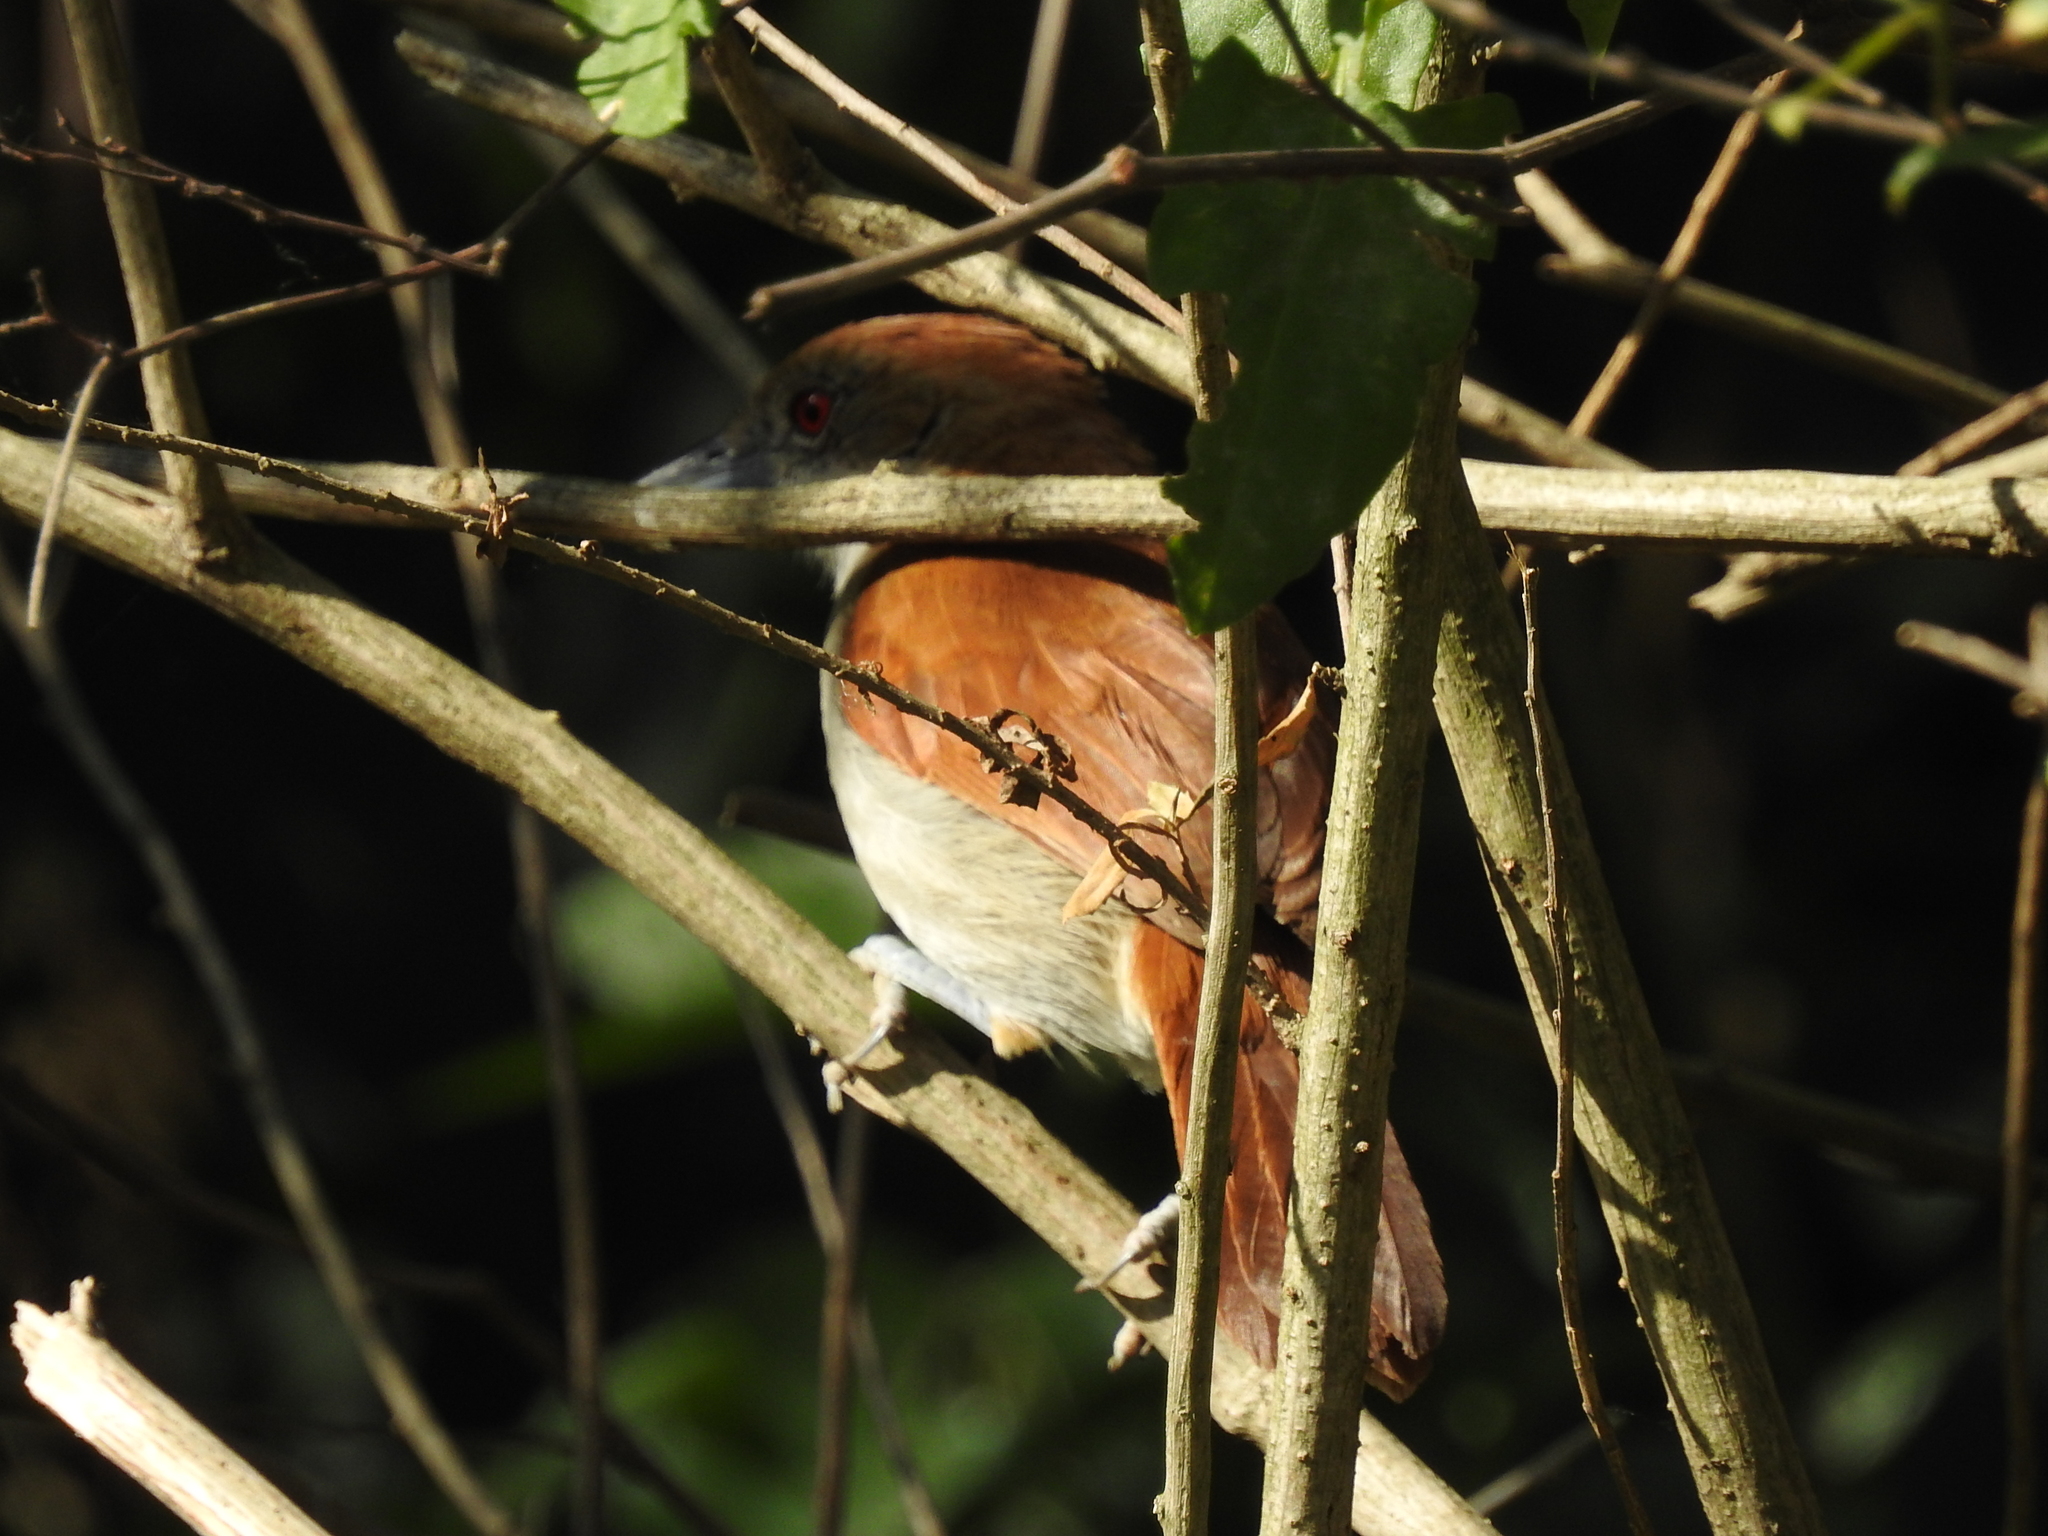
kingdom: Animalia
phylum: Chordata
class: Aves
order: Passeriformes
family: Thamnophilidae
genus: Taraba
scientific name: Taraba major
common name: Great antshrike
